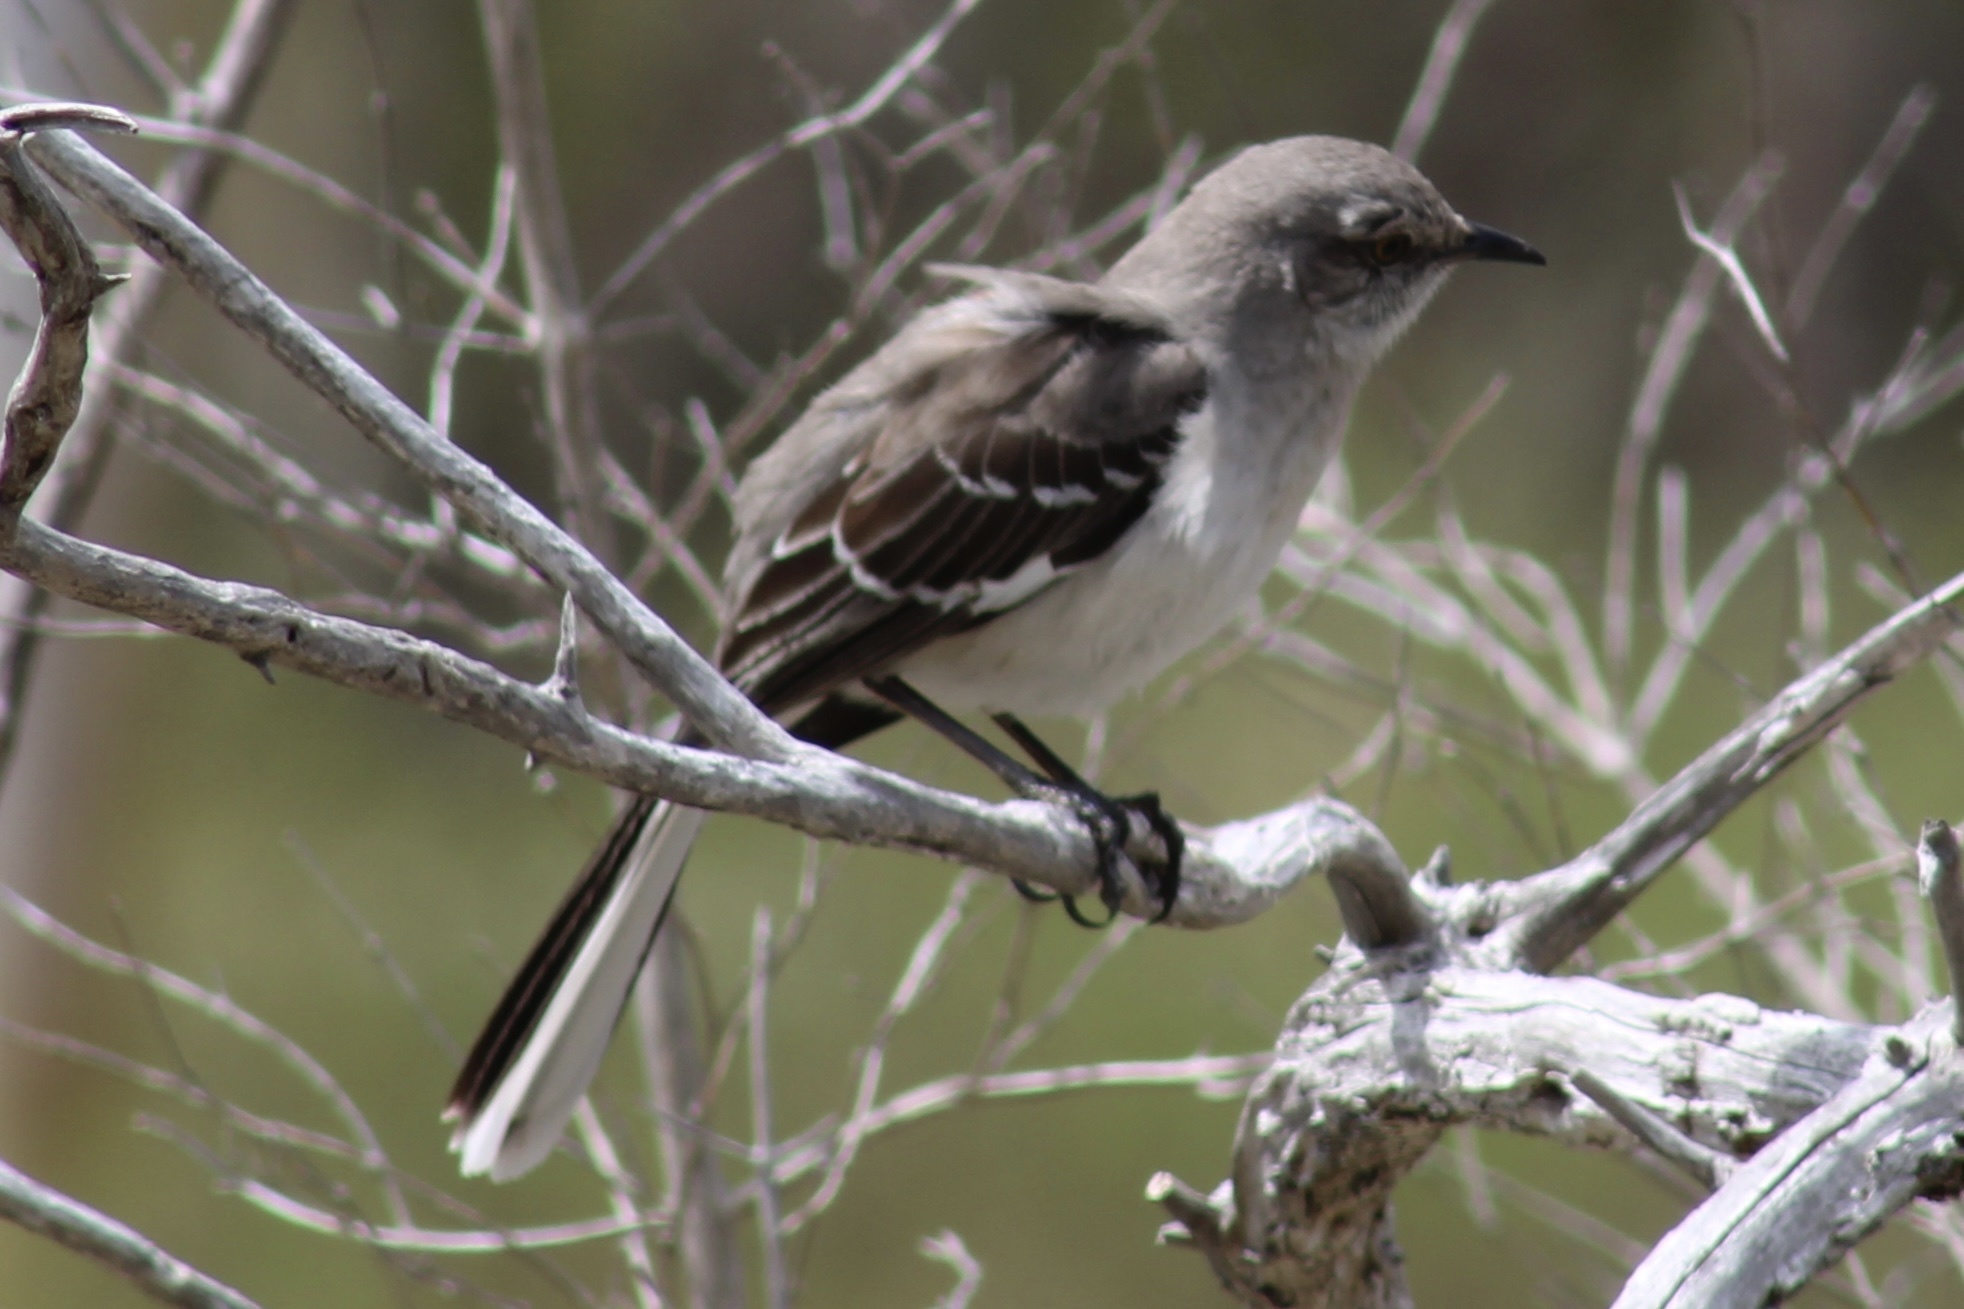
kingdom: Animalia
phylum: Chordata
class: Aves
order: Passeriformes
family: Mimidae
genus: Mimus
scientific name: Mimus polyglottos
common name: Northern mockingbird
